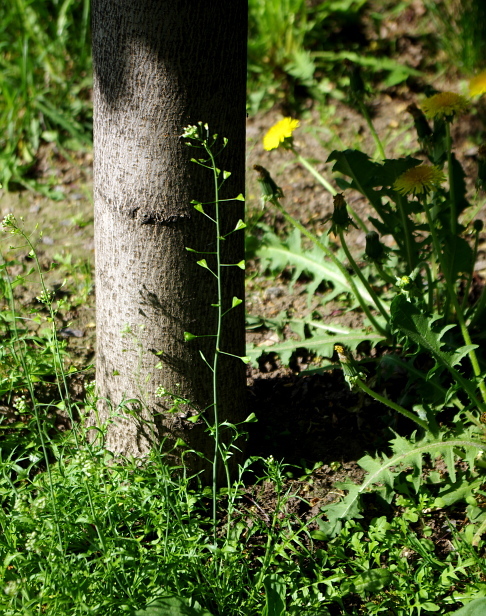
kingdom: Plantae
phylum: Tracheophyta
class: Magnoliopsida
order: Brassicales
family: Brassicaceae
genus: Capsella
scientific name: Capsella bursa-pastoris
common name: Shepherd's purse
